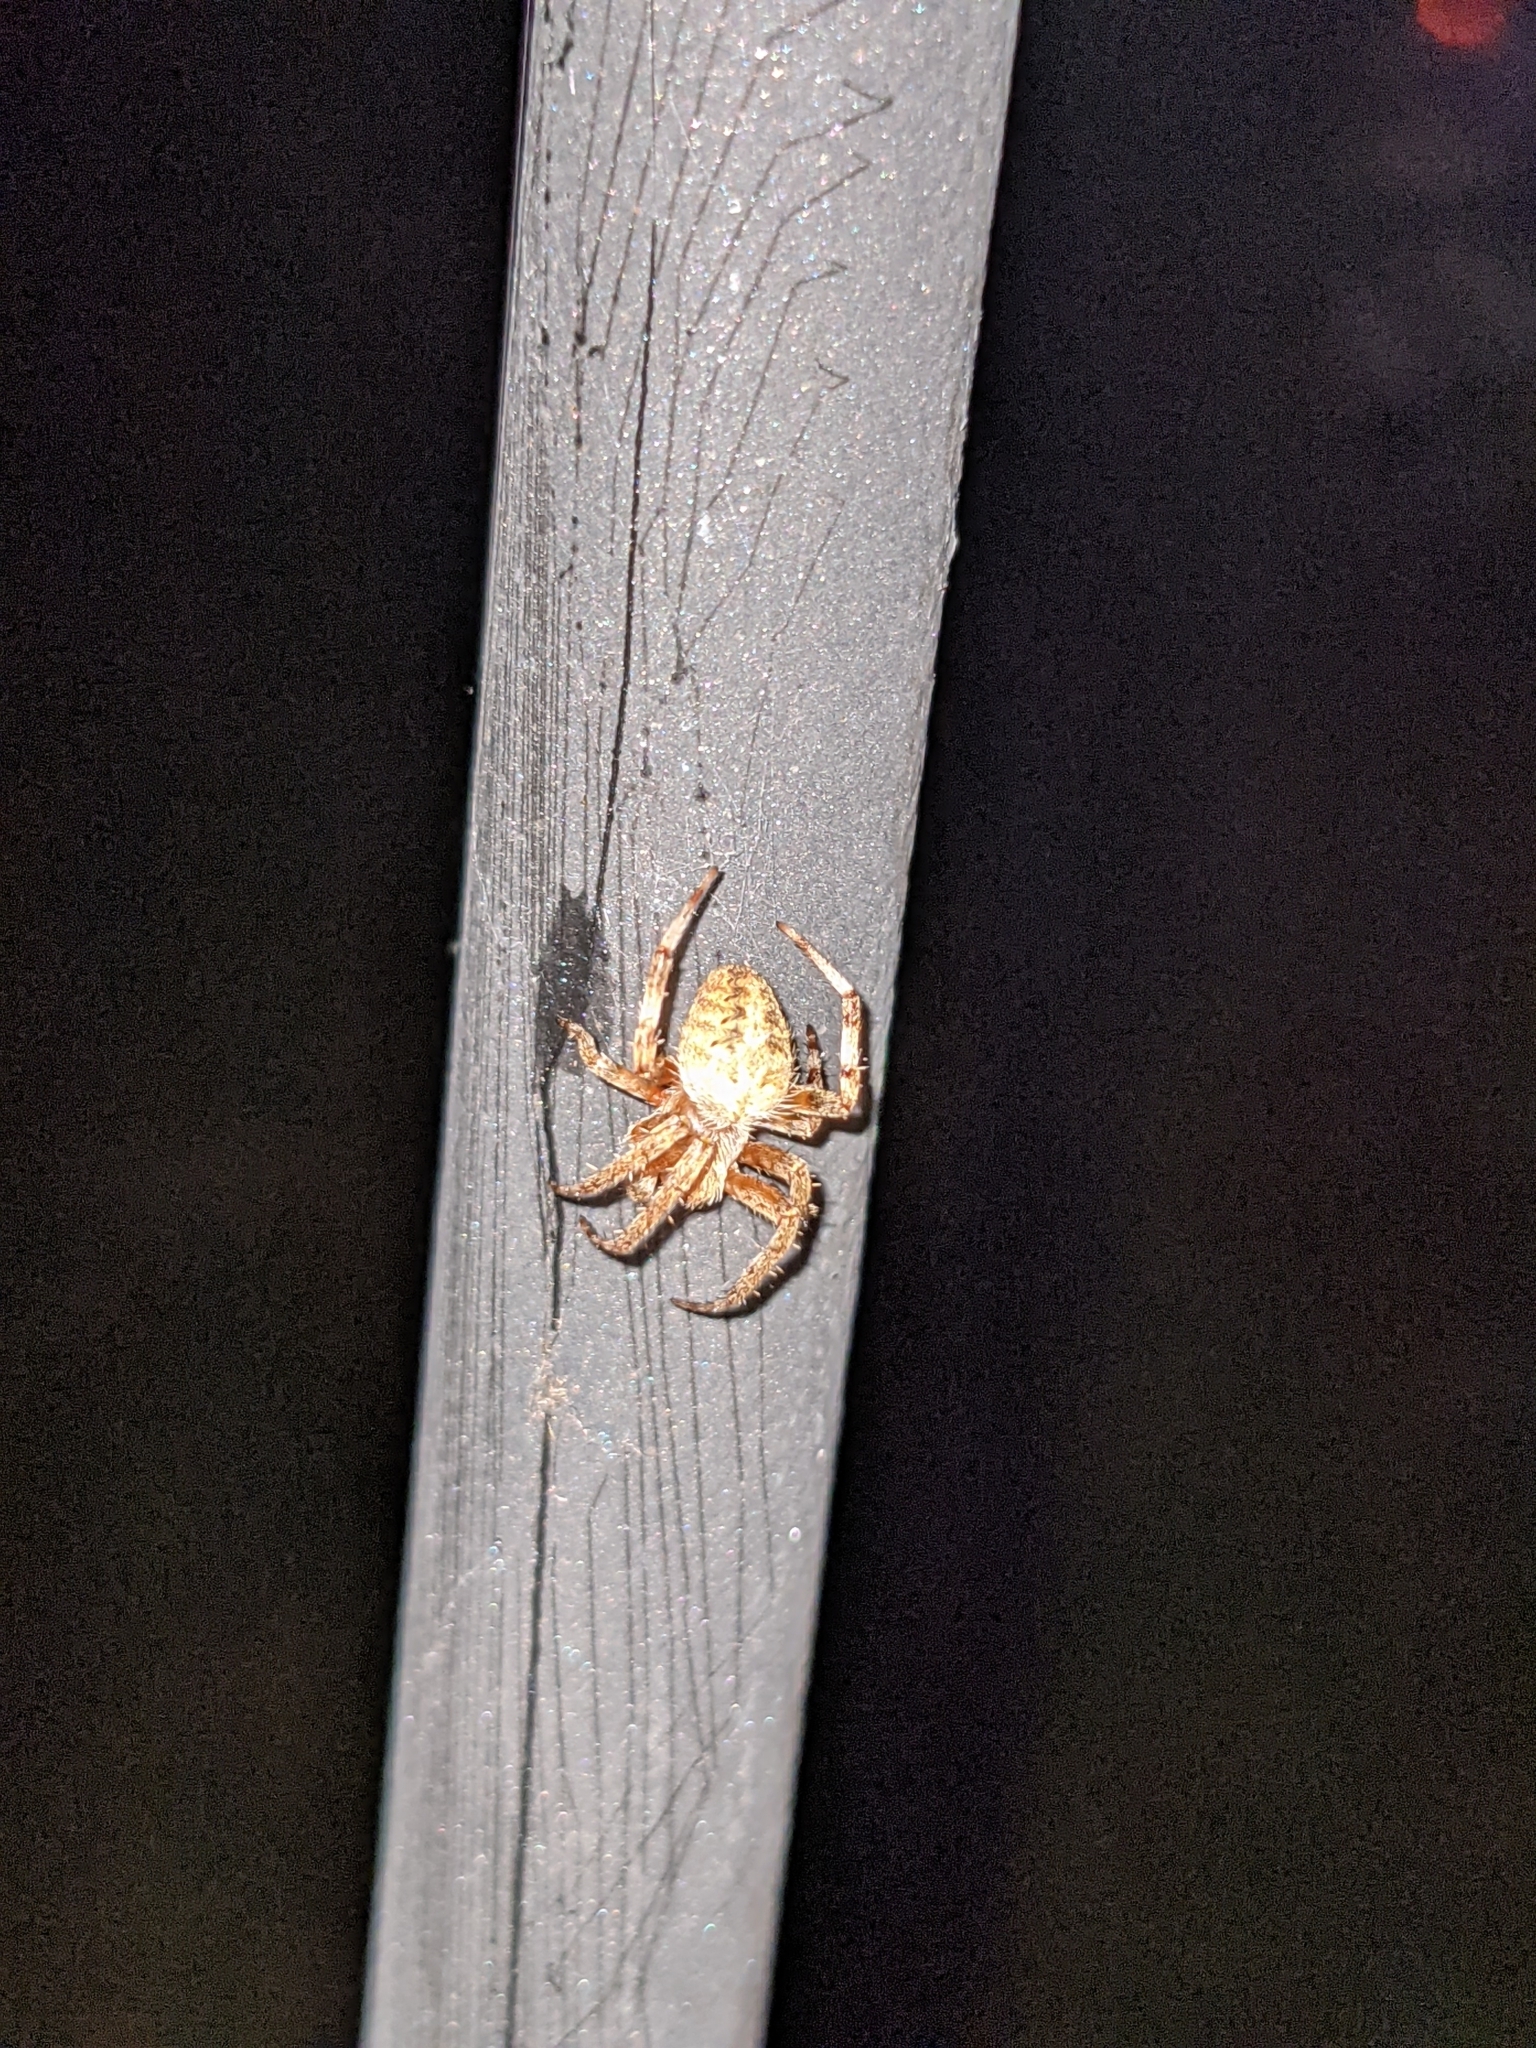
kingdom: Animalia
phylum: Arthropoda
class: Arachnida
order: Araneae
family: Araneidae
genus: Neoscona
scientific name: Neoscona crucifera
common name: Spotted orbweaver
